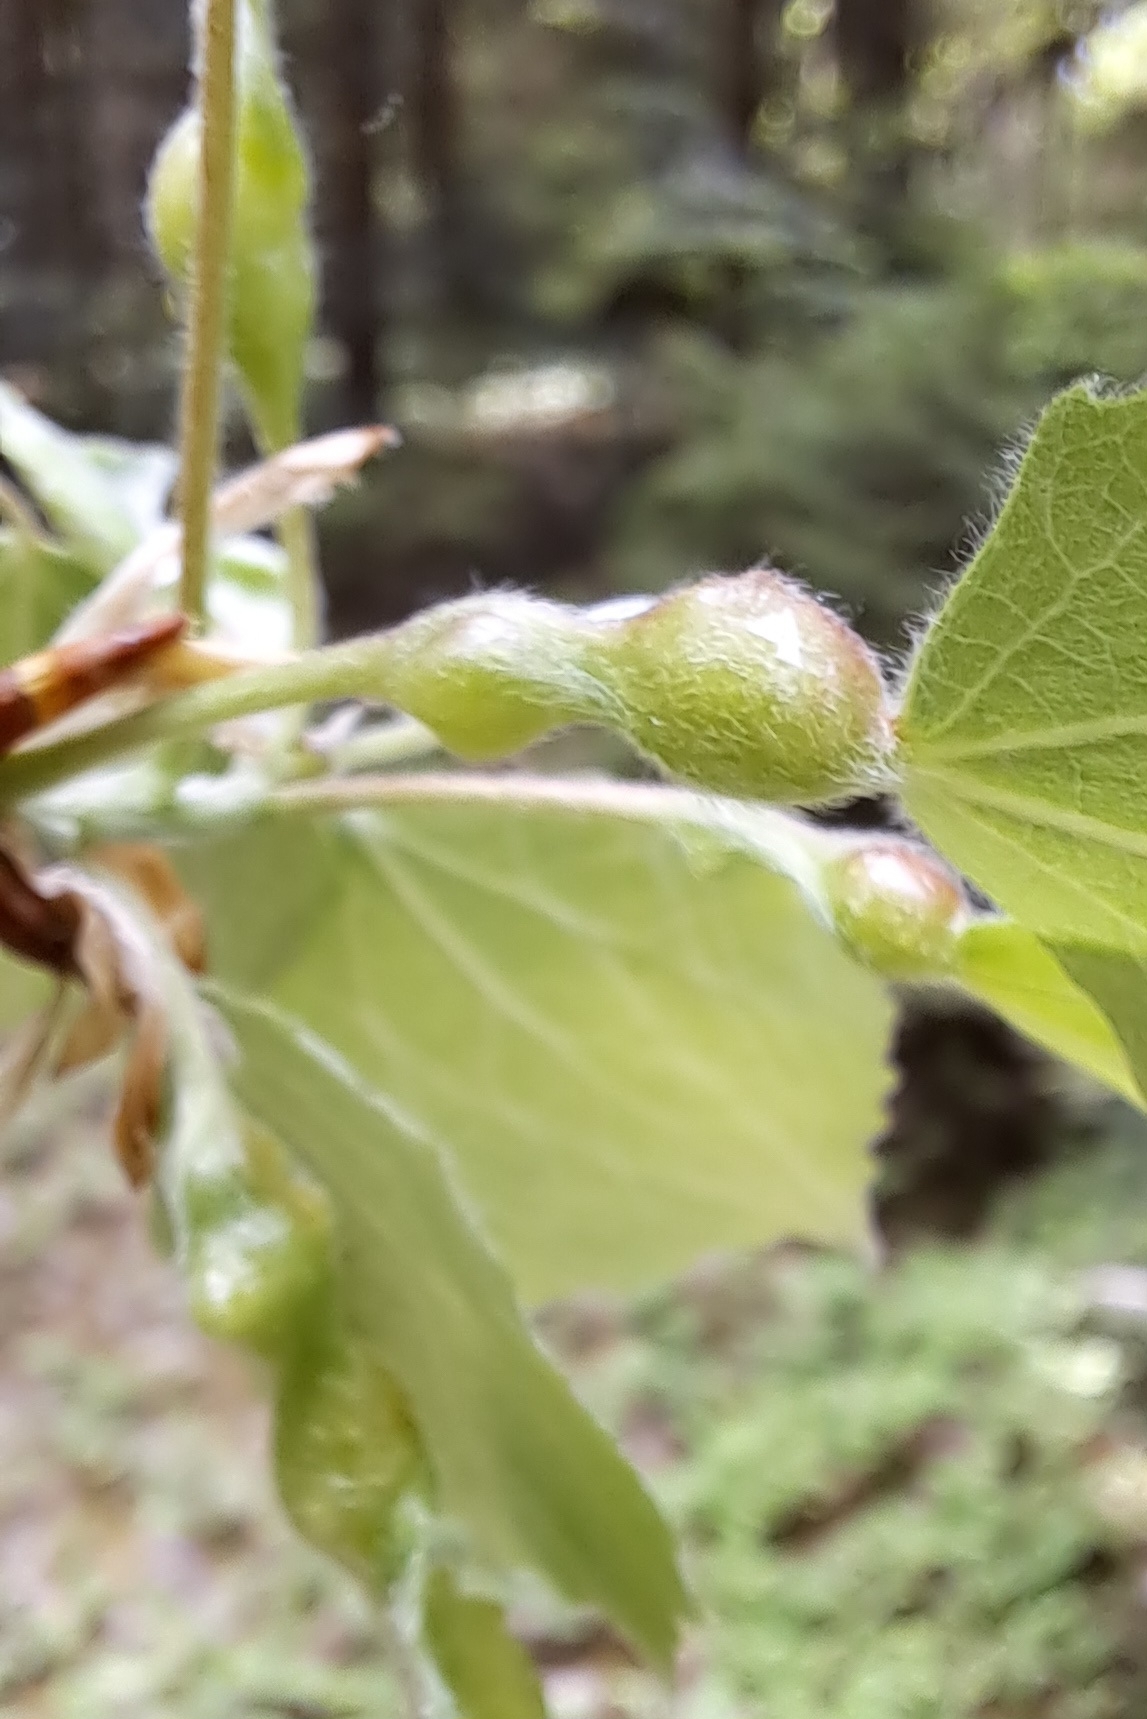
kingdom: Animalia
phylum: Arthropoda
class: Insecta
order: Diptera
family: Cecidomyiidae
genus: Contarinia
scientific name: Contarinia petioli
